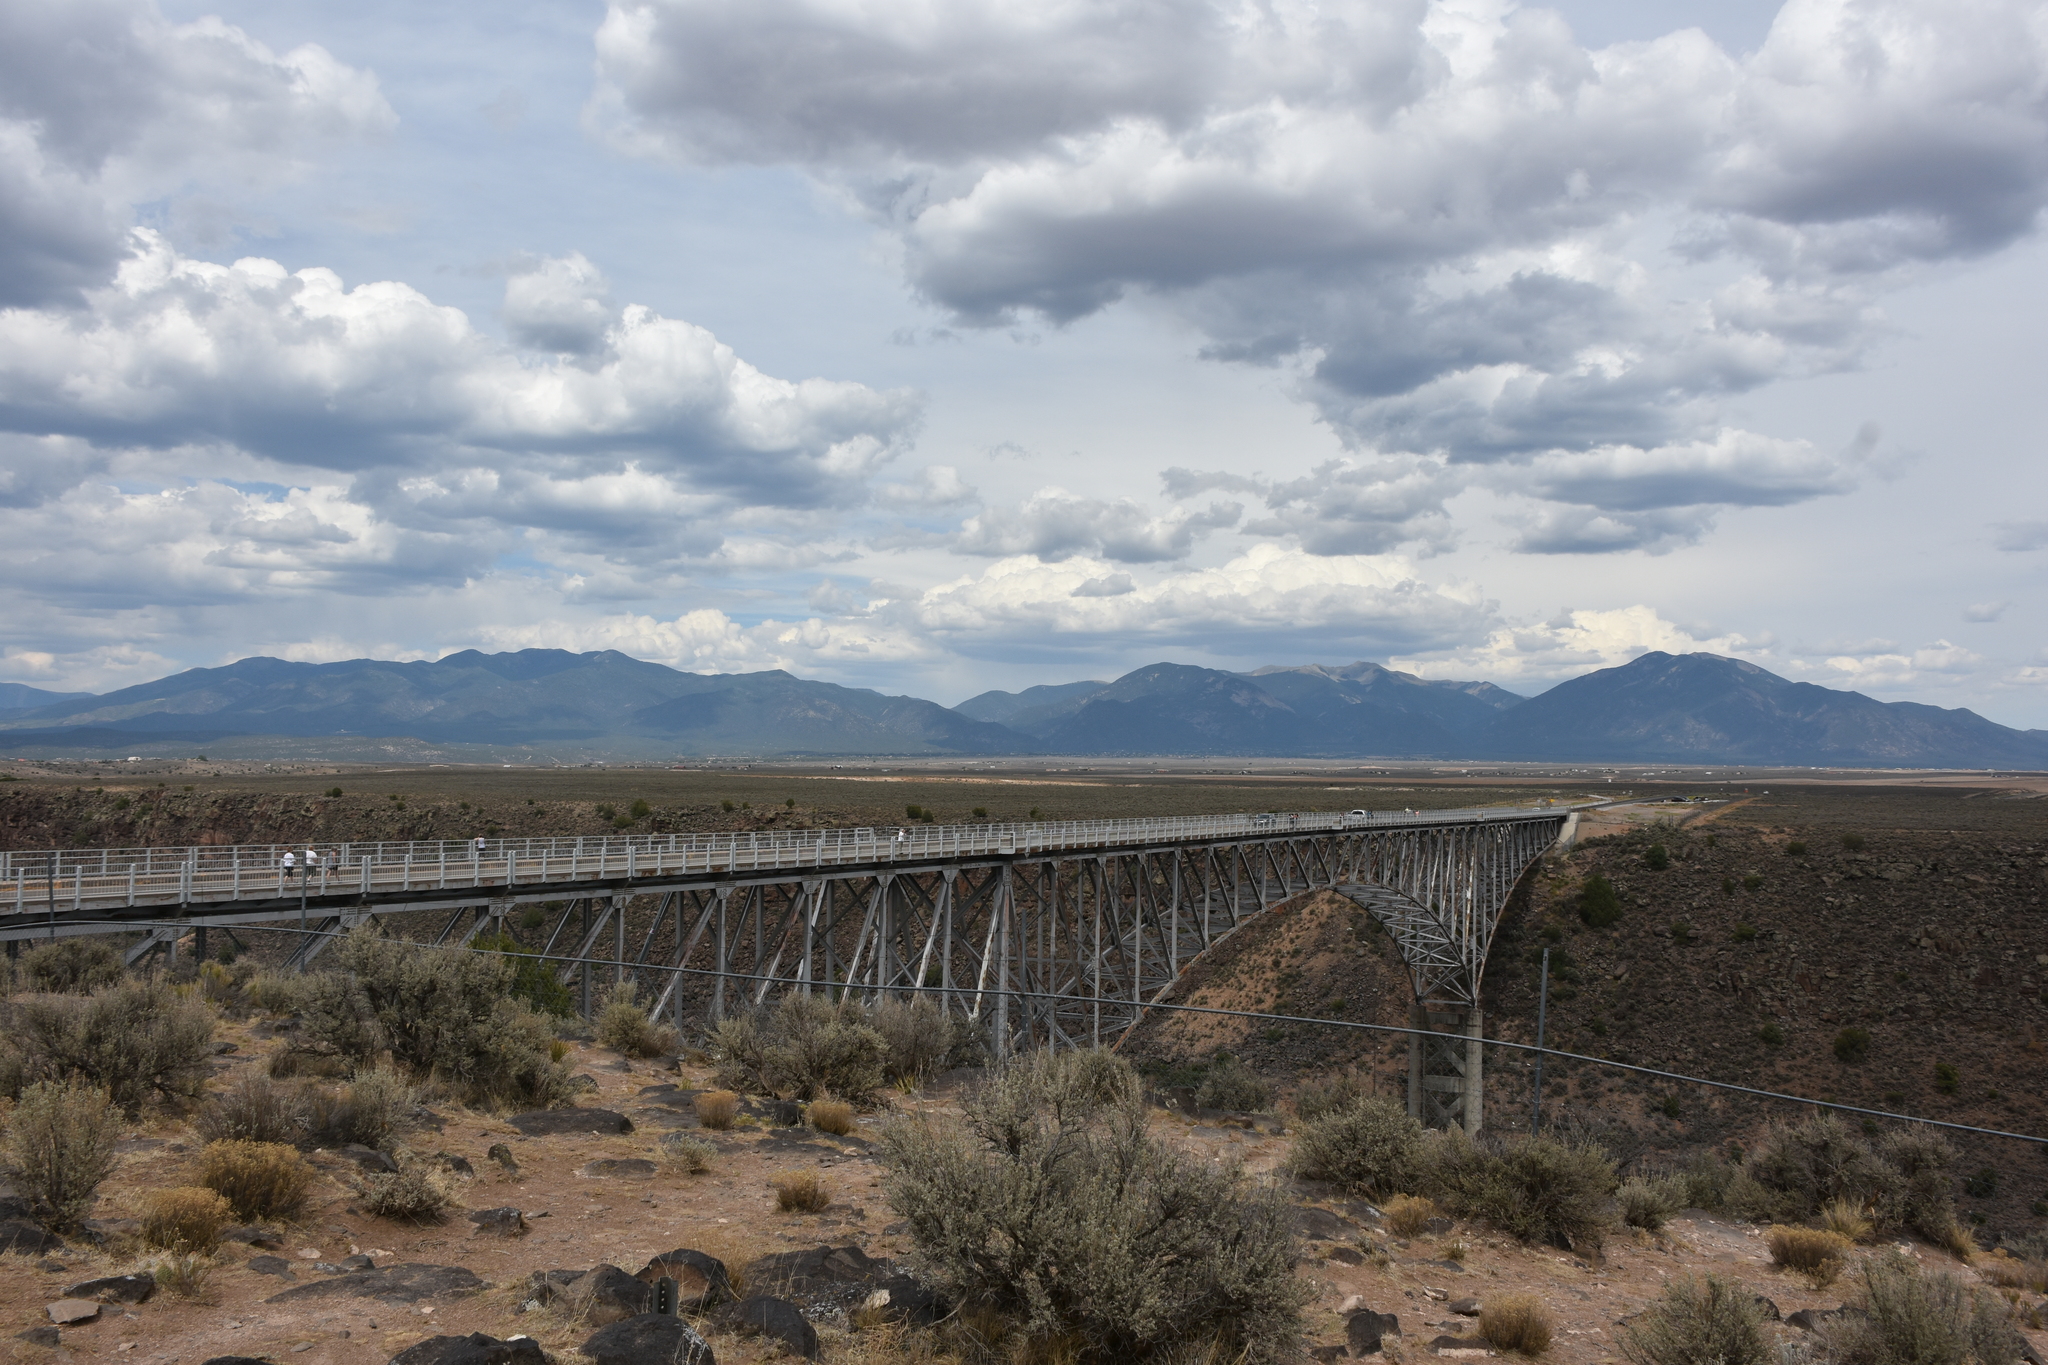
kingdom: Plantae
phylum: Tracheophyta
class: Magnoliopsida
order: Asterales
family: Asteraceae
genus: Artemisia
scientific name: Artemisia tridentata
